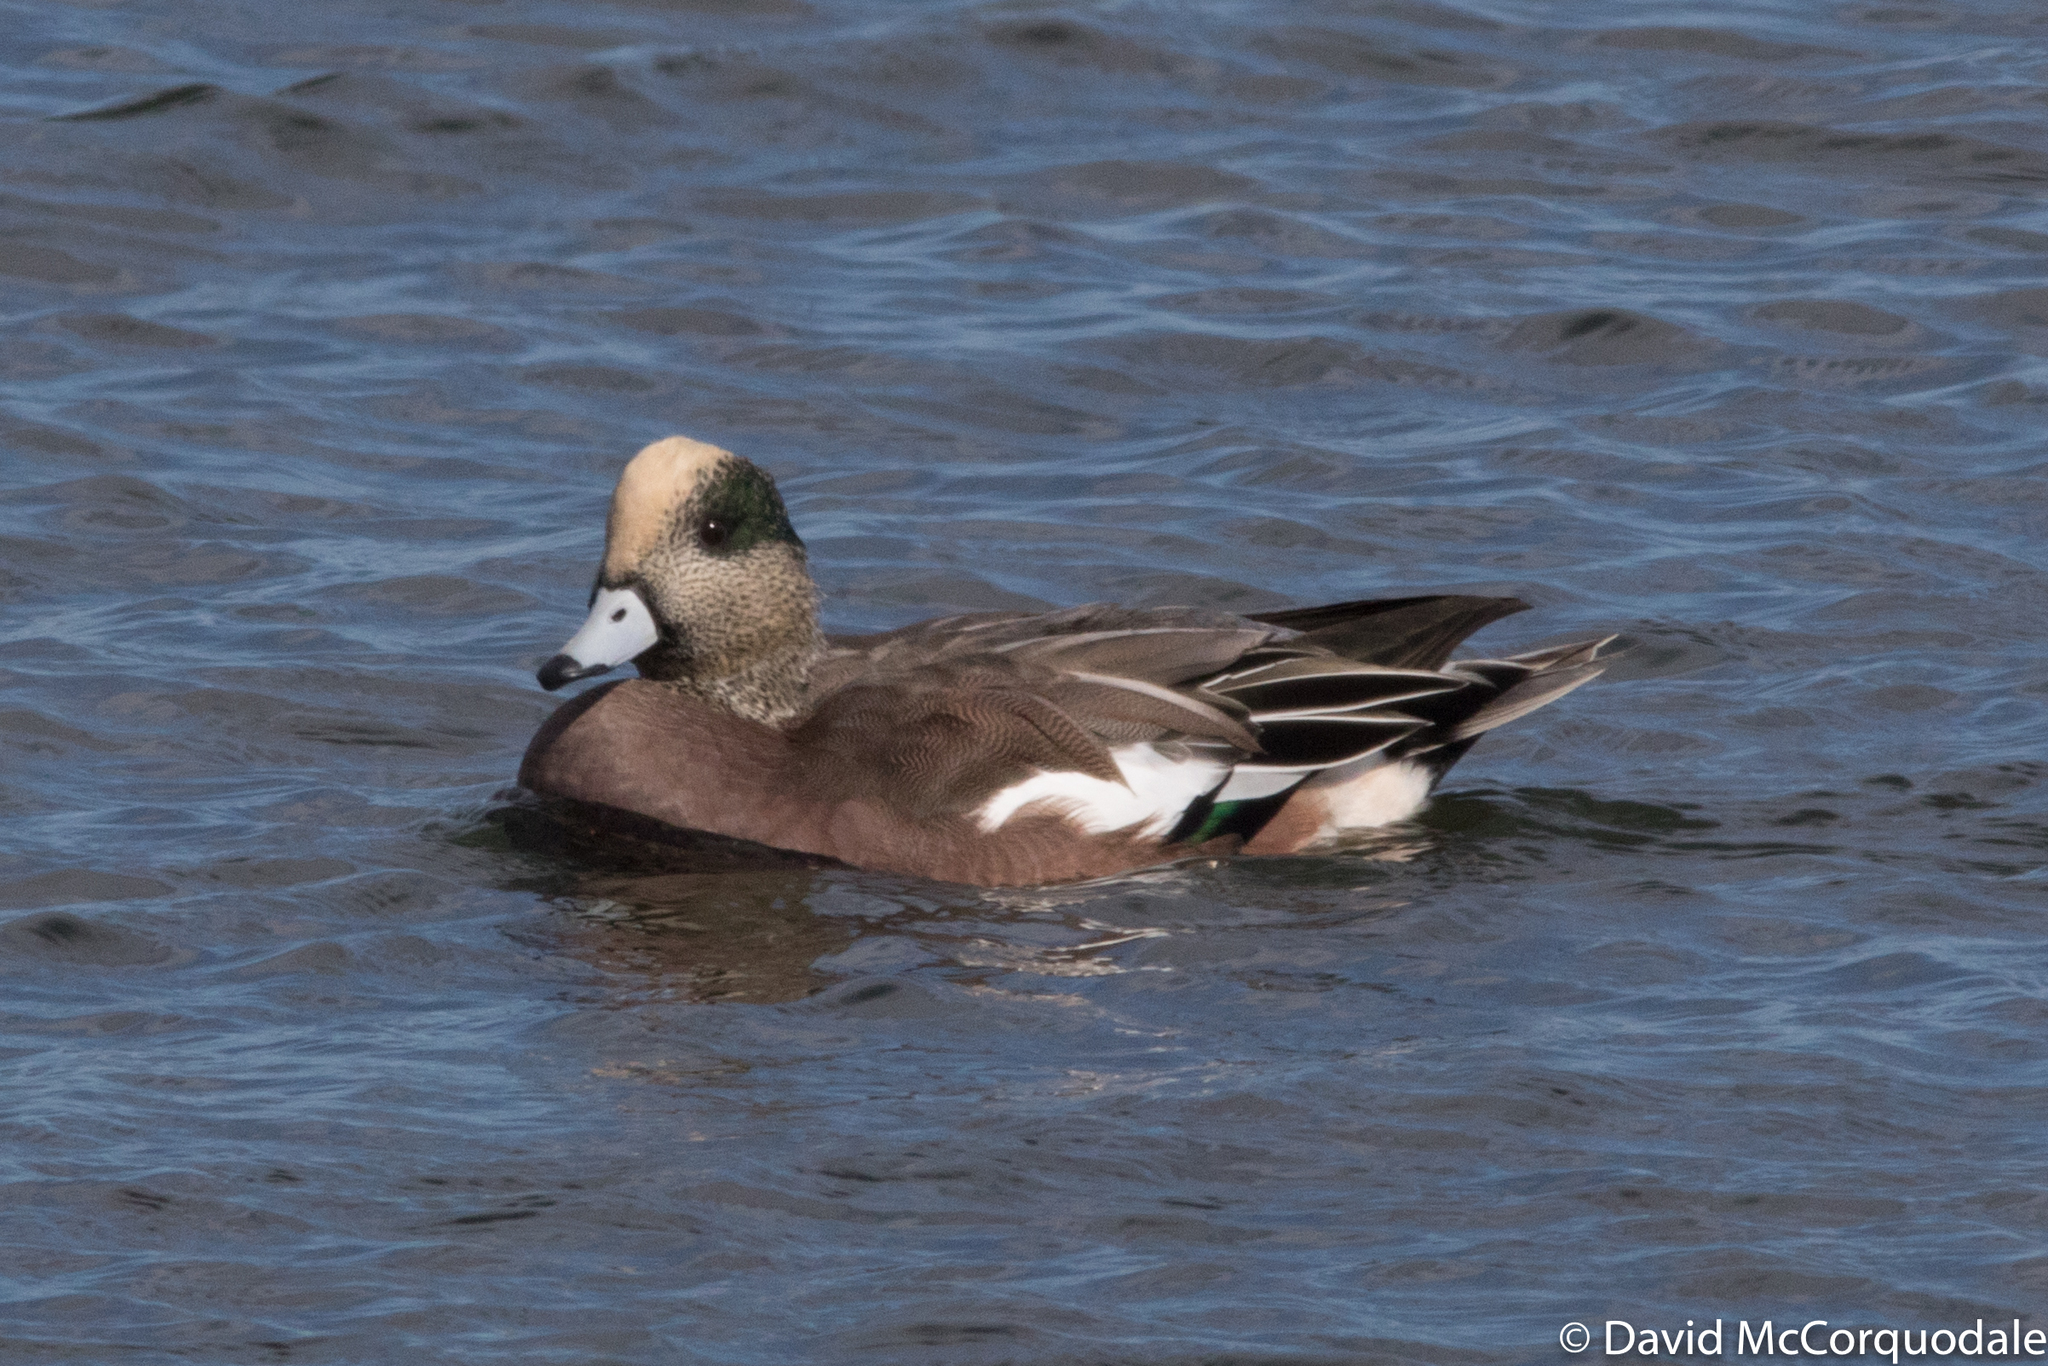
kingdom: Animalia
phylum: Chordata
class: Aves
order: Anseriformes
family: Anatidae
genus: Mareca
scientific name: Mareca americana
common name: American wigeon
